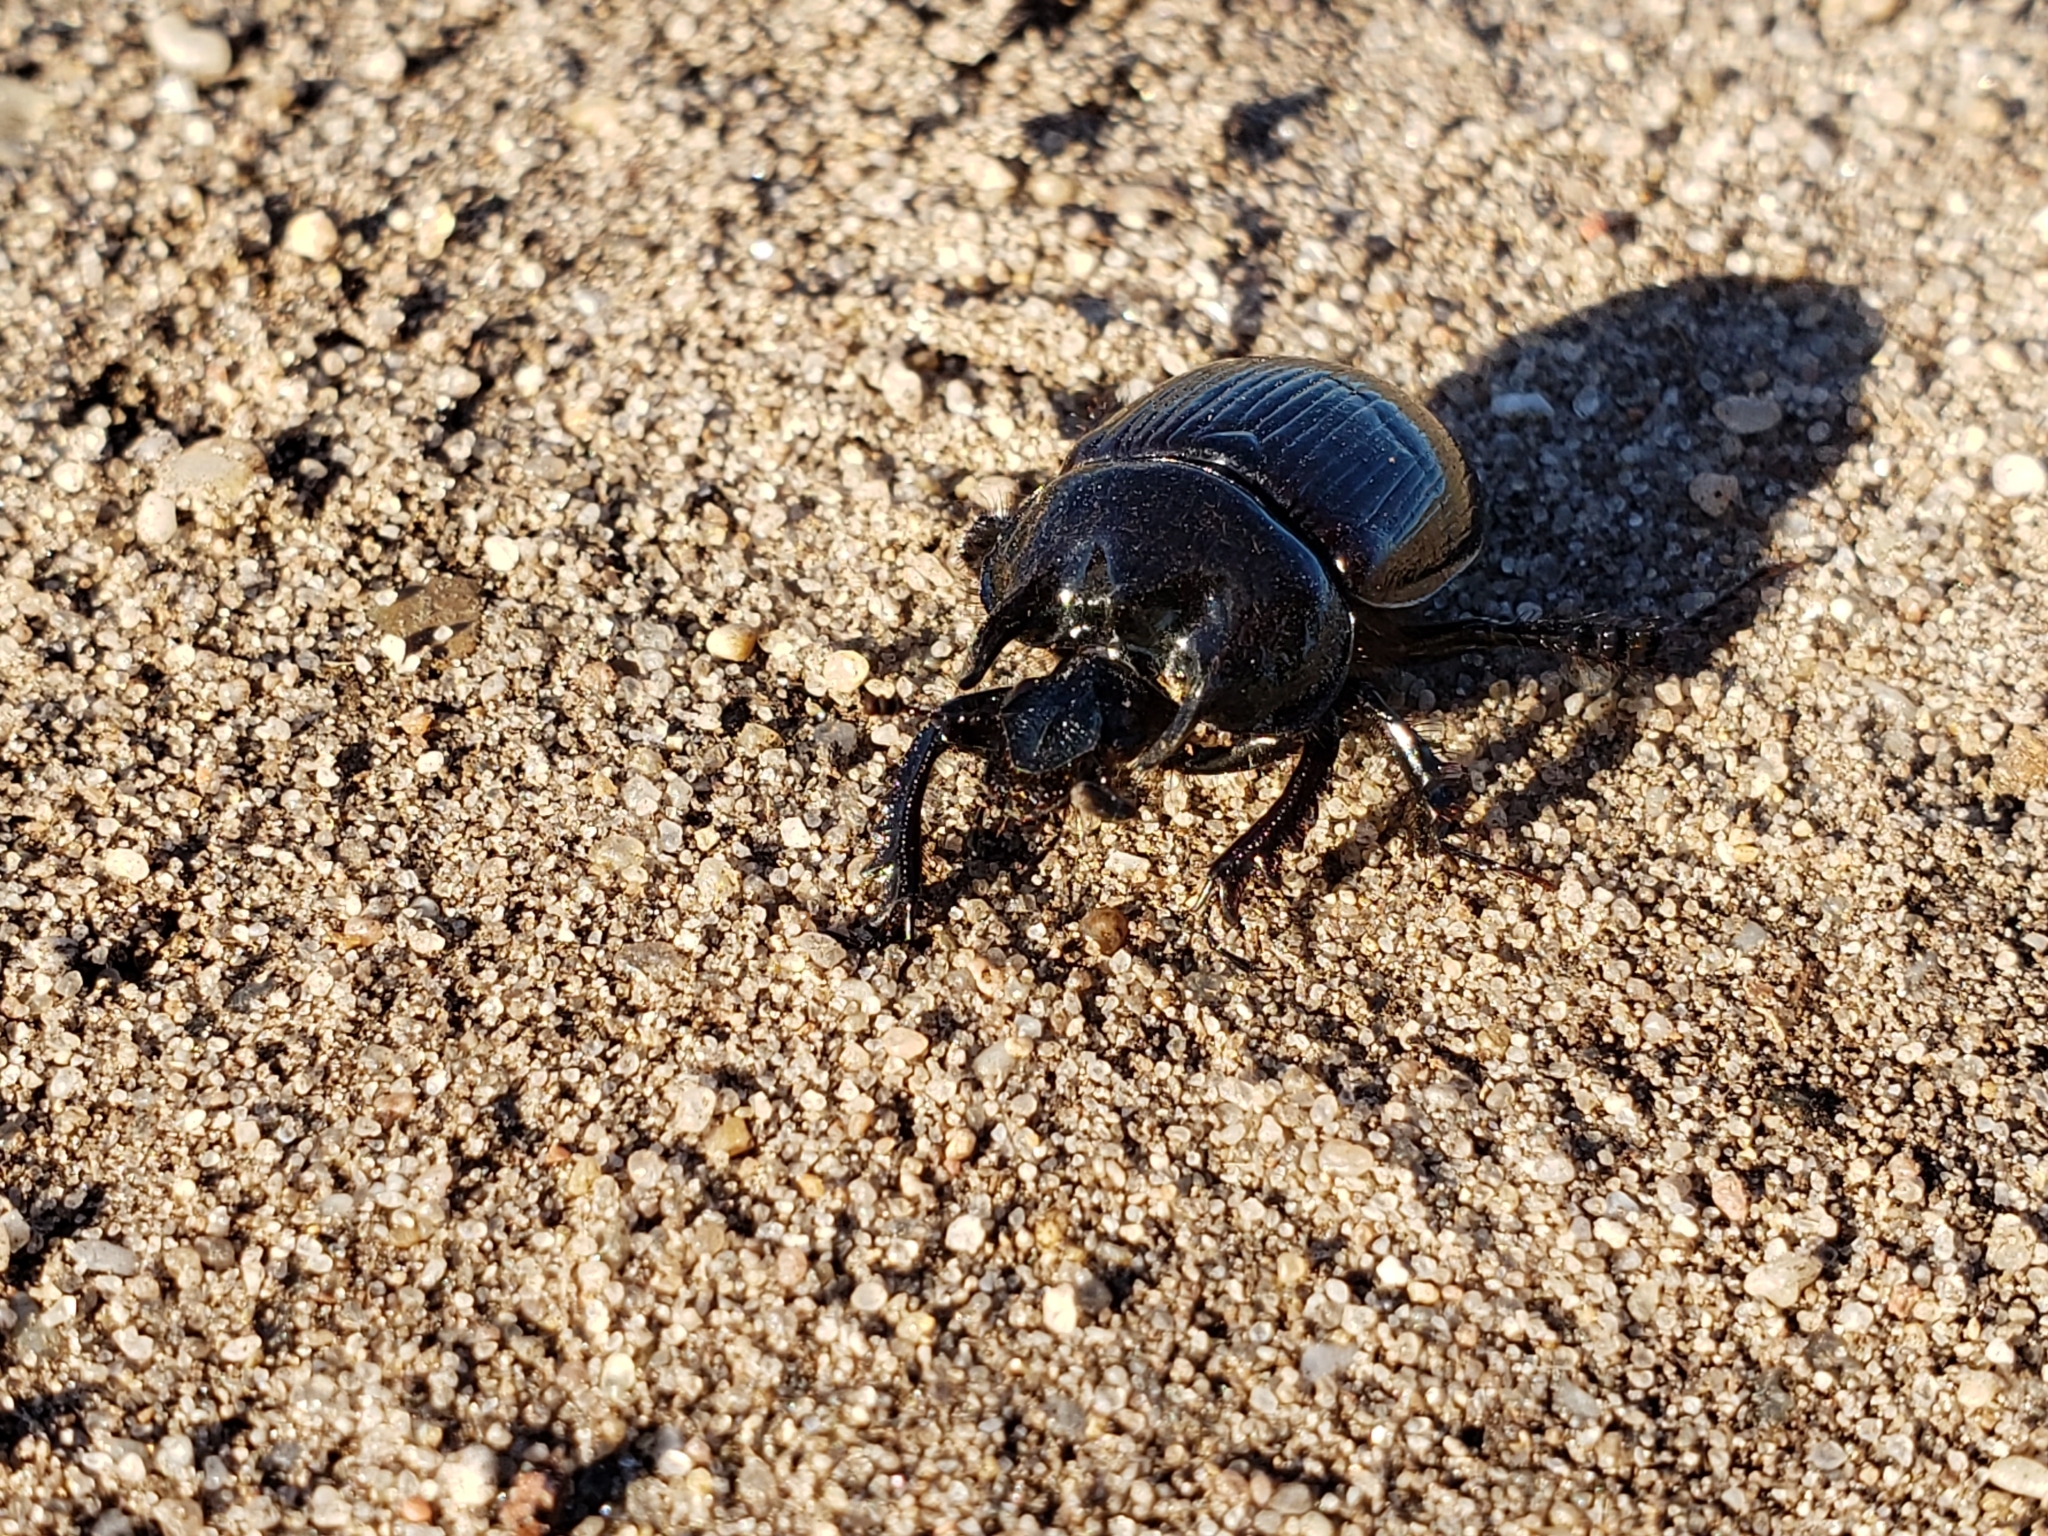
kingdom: Animalia
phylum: Arthropoda
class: Insecta
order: Coleoptera
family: Geotrupidae
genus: Typhaeus
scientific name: Typhaeus typhoeus
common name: Minotaur beetle
